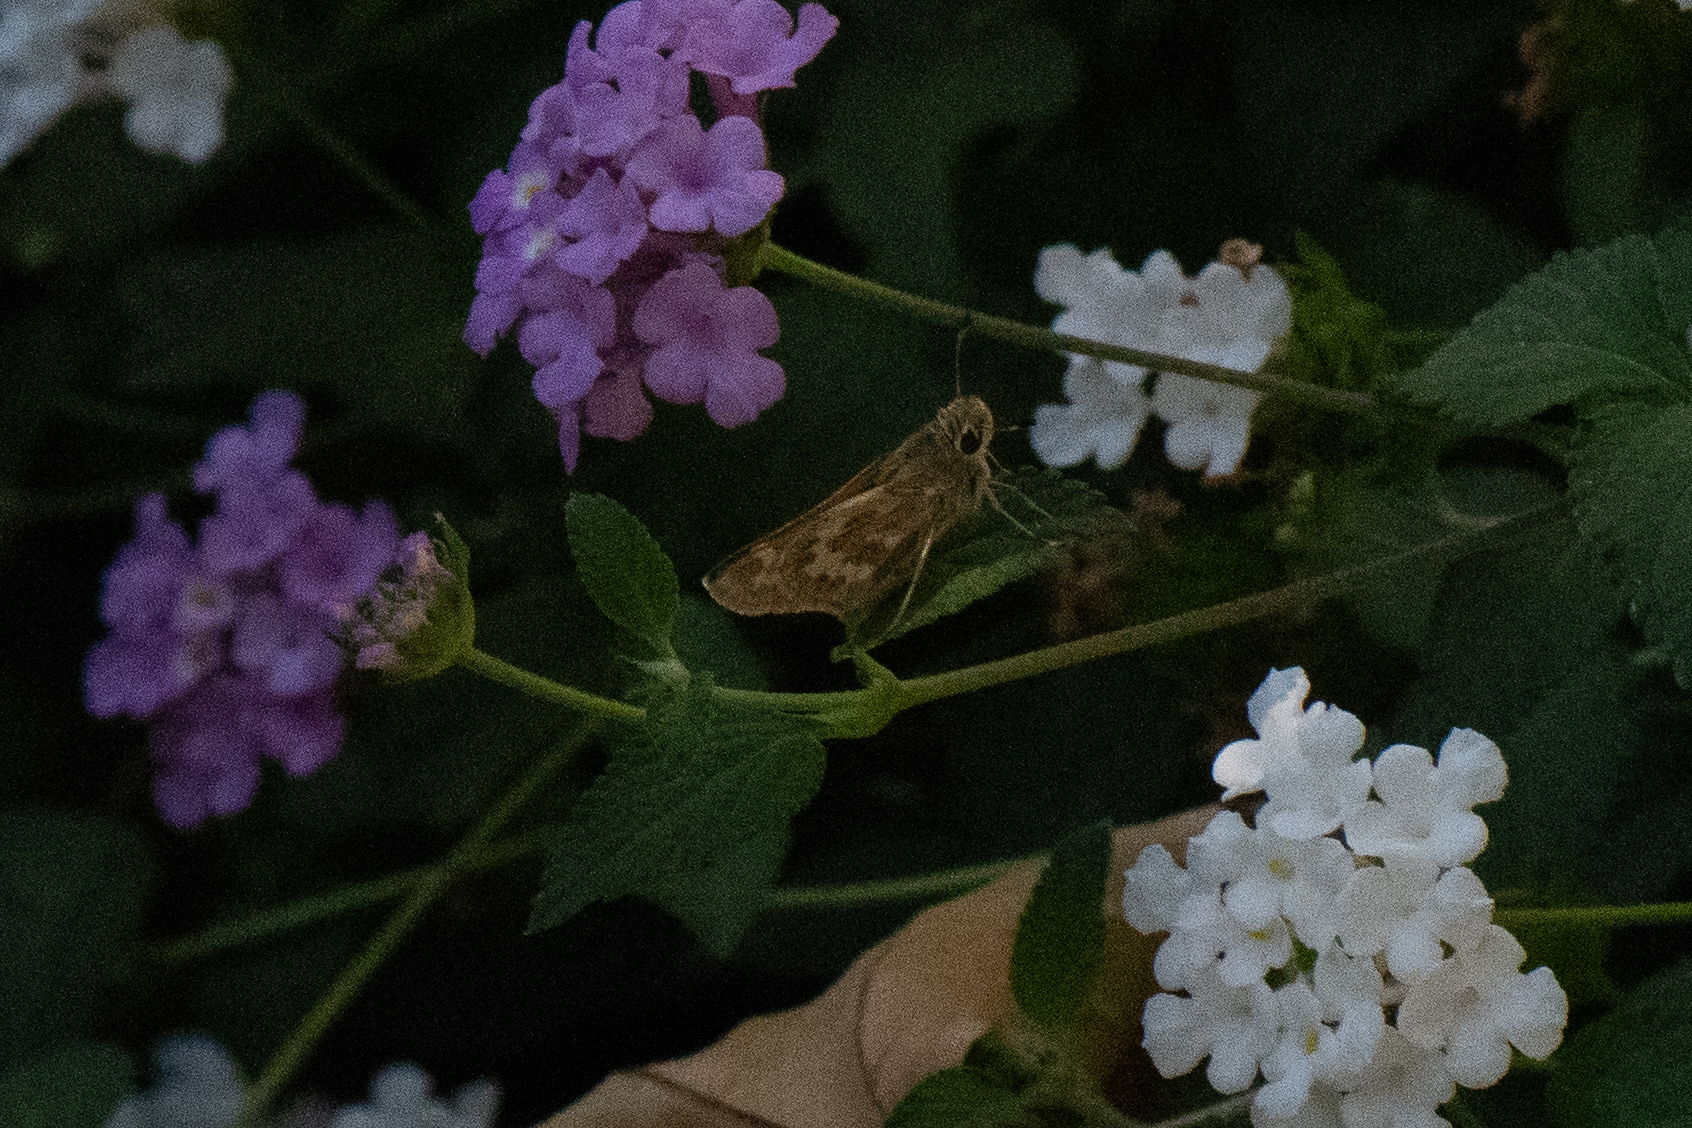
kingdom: Animalia
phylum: Arthropoda
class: Insecta
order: Lepidoptera
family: Hesperiidae
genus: Atalopedes
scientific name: Atalopedes campestris
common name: Sachem
